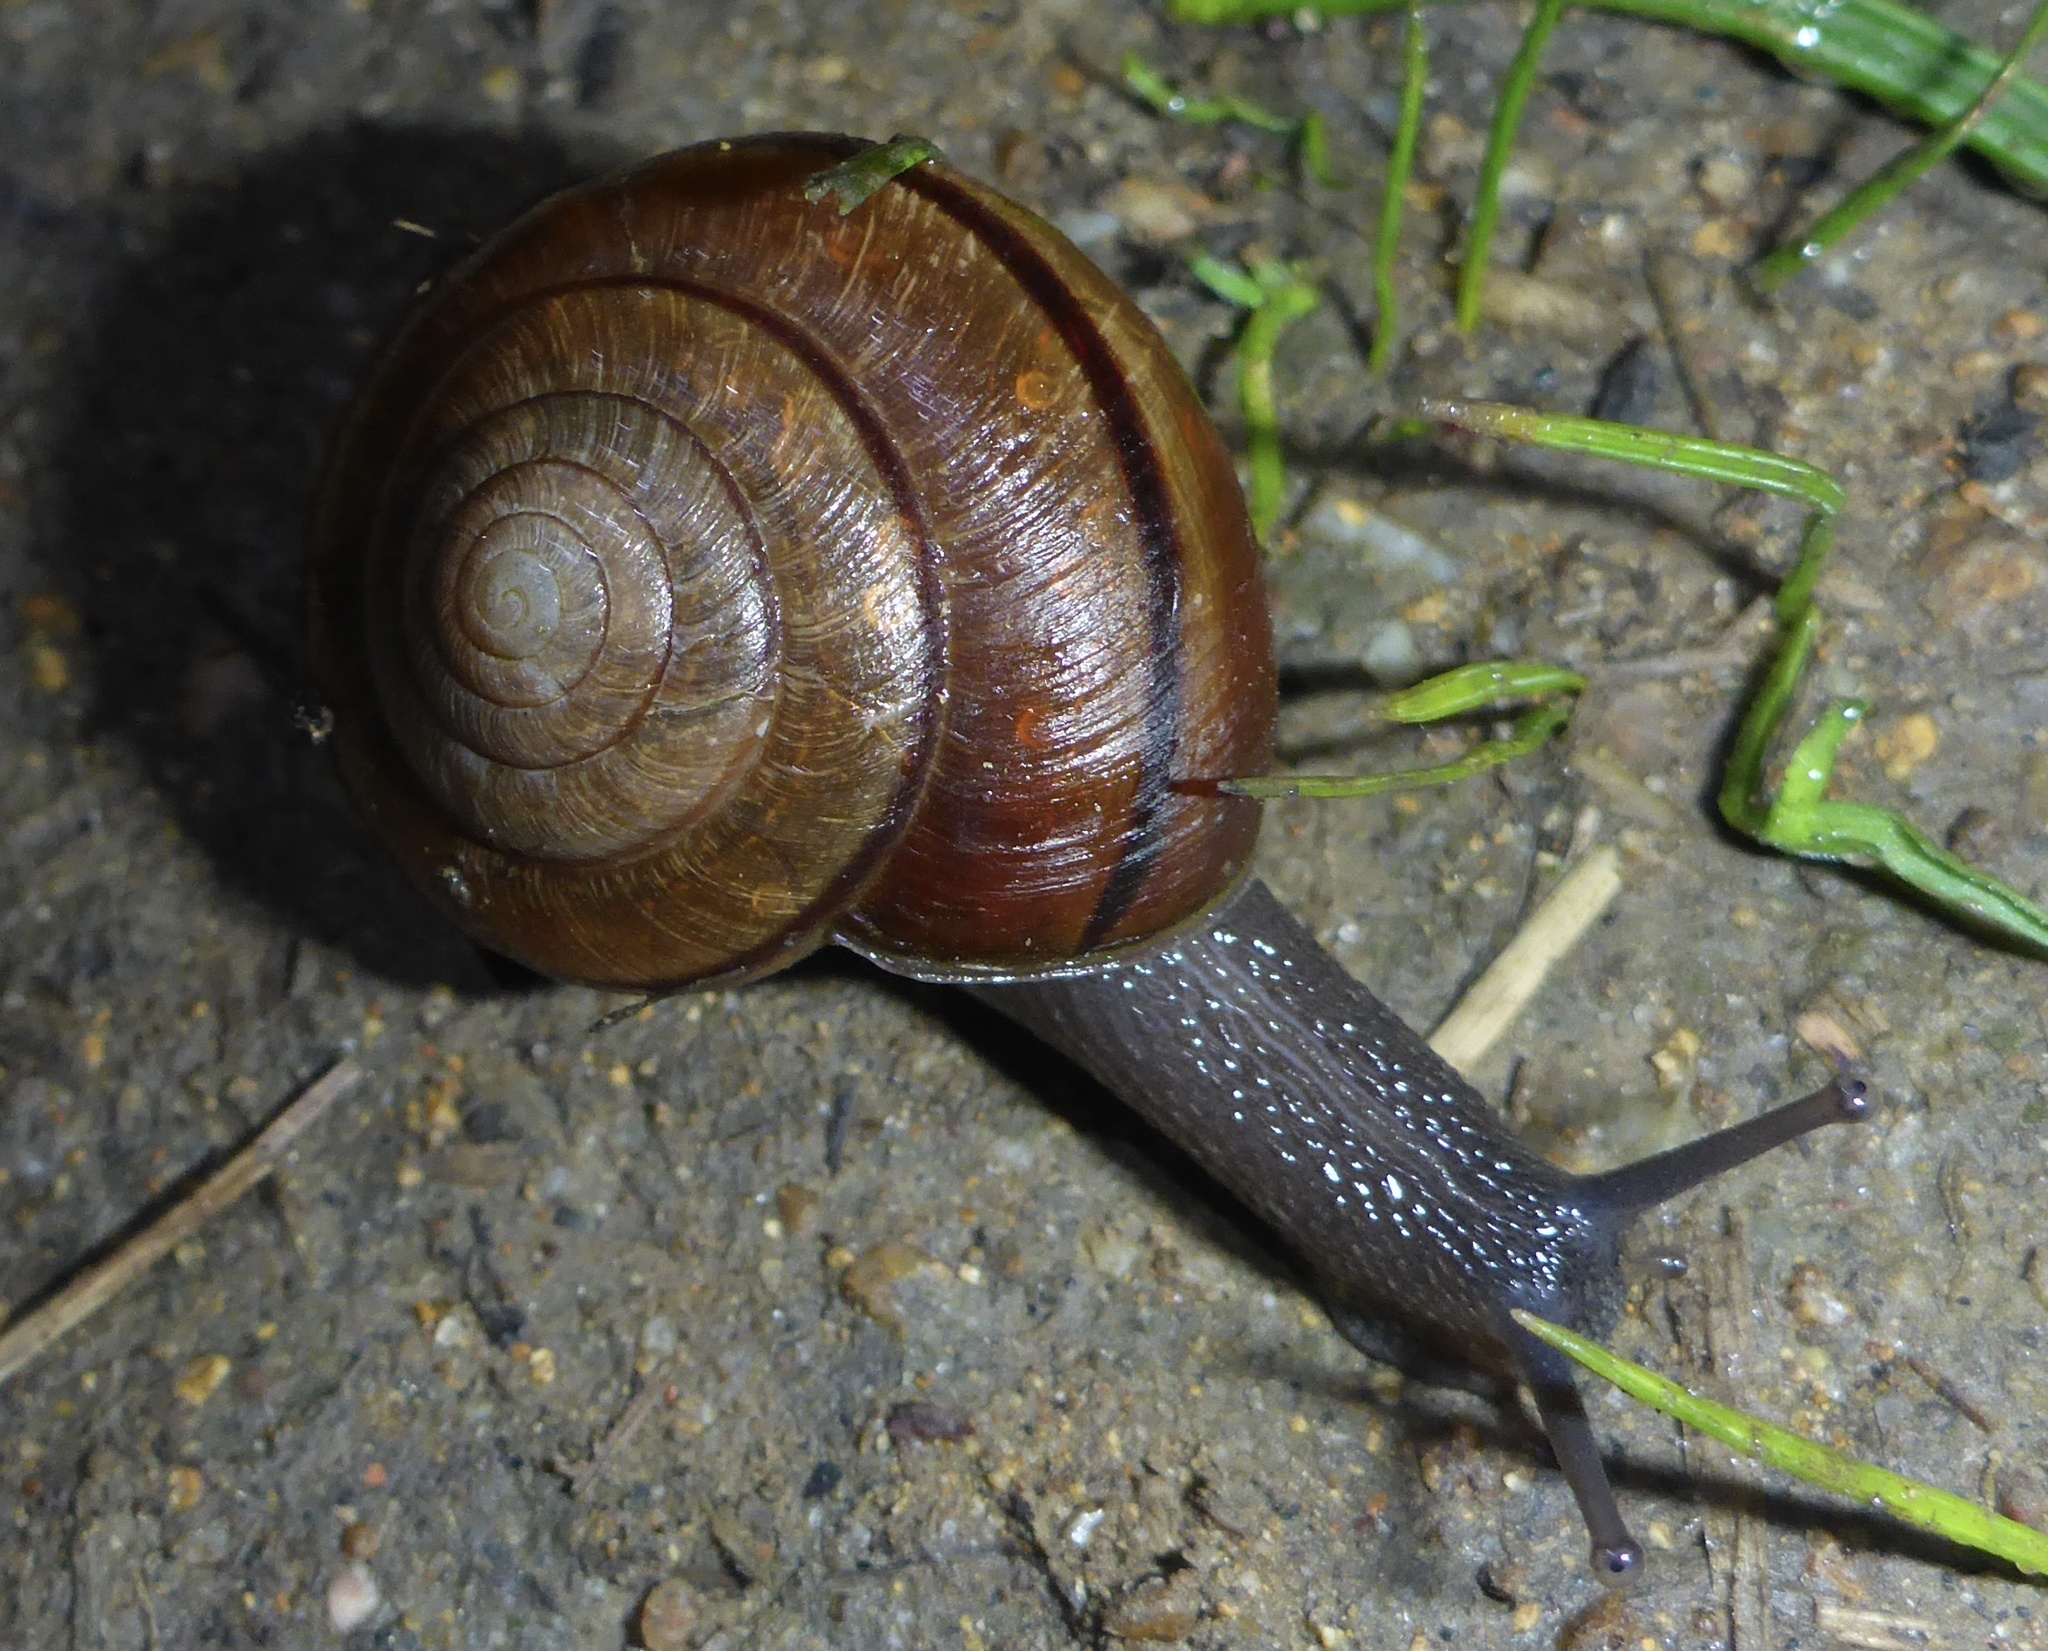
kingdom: Animalia
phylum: Mollusca
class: Gastropoda
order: Stylommatophora
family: Xanthonychidae
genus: Helminthoglypta
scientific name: Helminthoglypta arrosa
